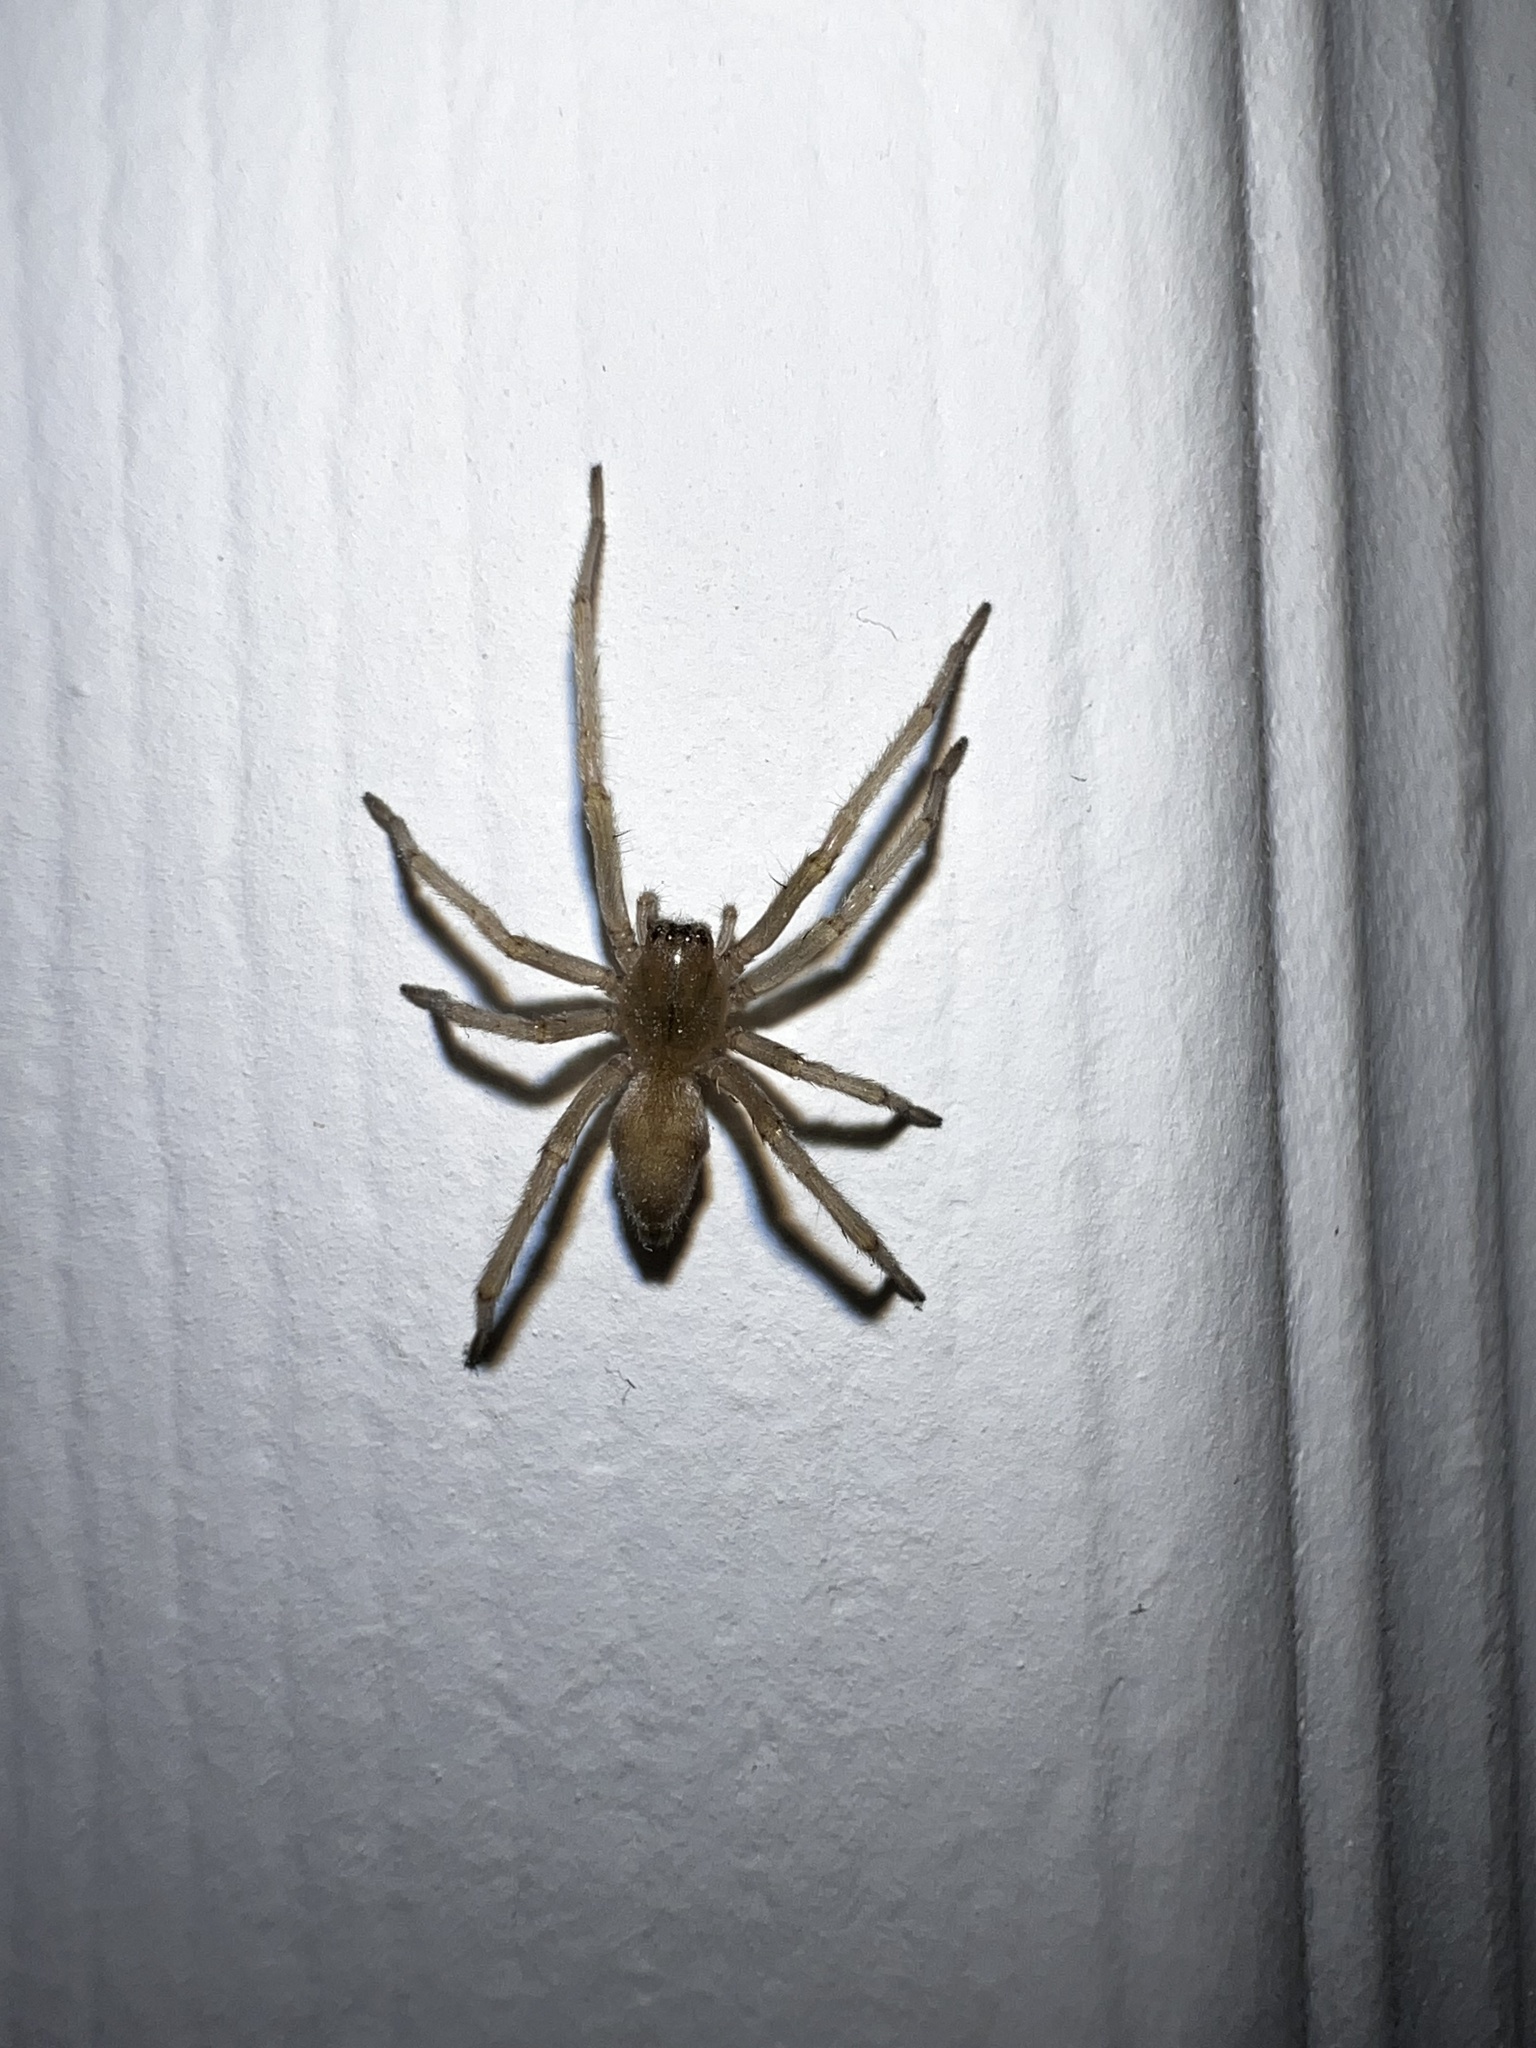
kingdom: Animalia
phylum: Arthropoda
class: Arachnida
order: Araneae
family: Cheiracanthiidae
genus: Cheiracanthium
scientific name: Cheiracanthium mildei
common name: Northern yellow sac spider
